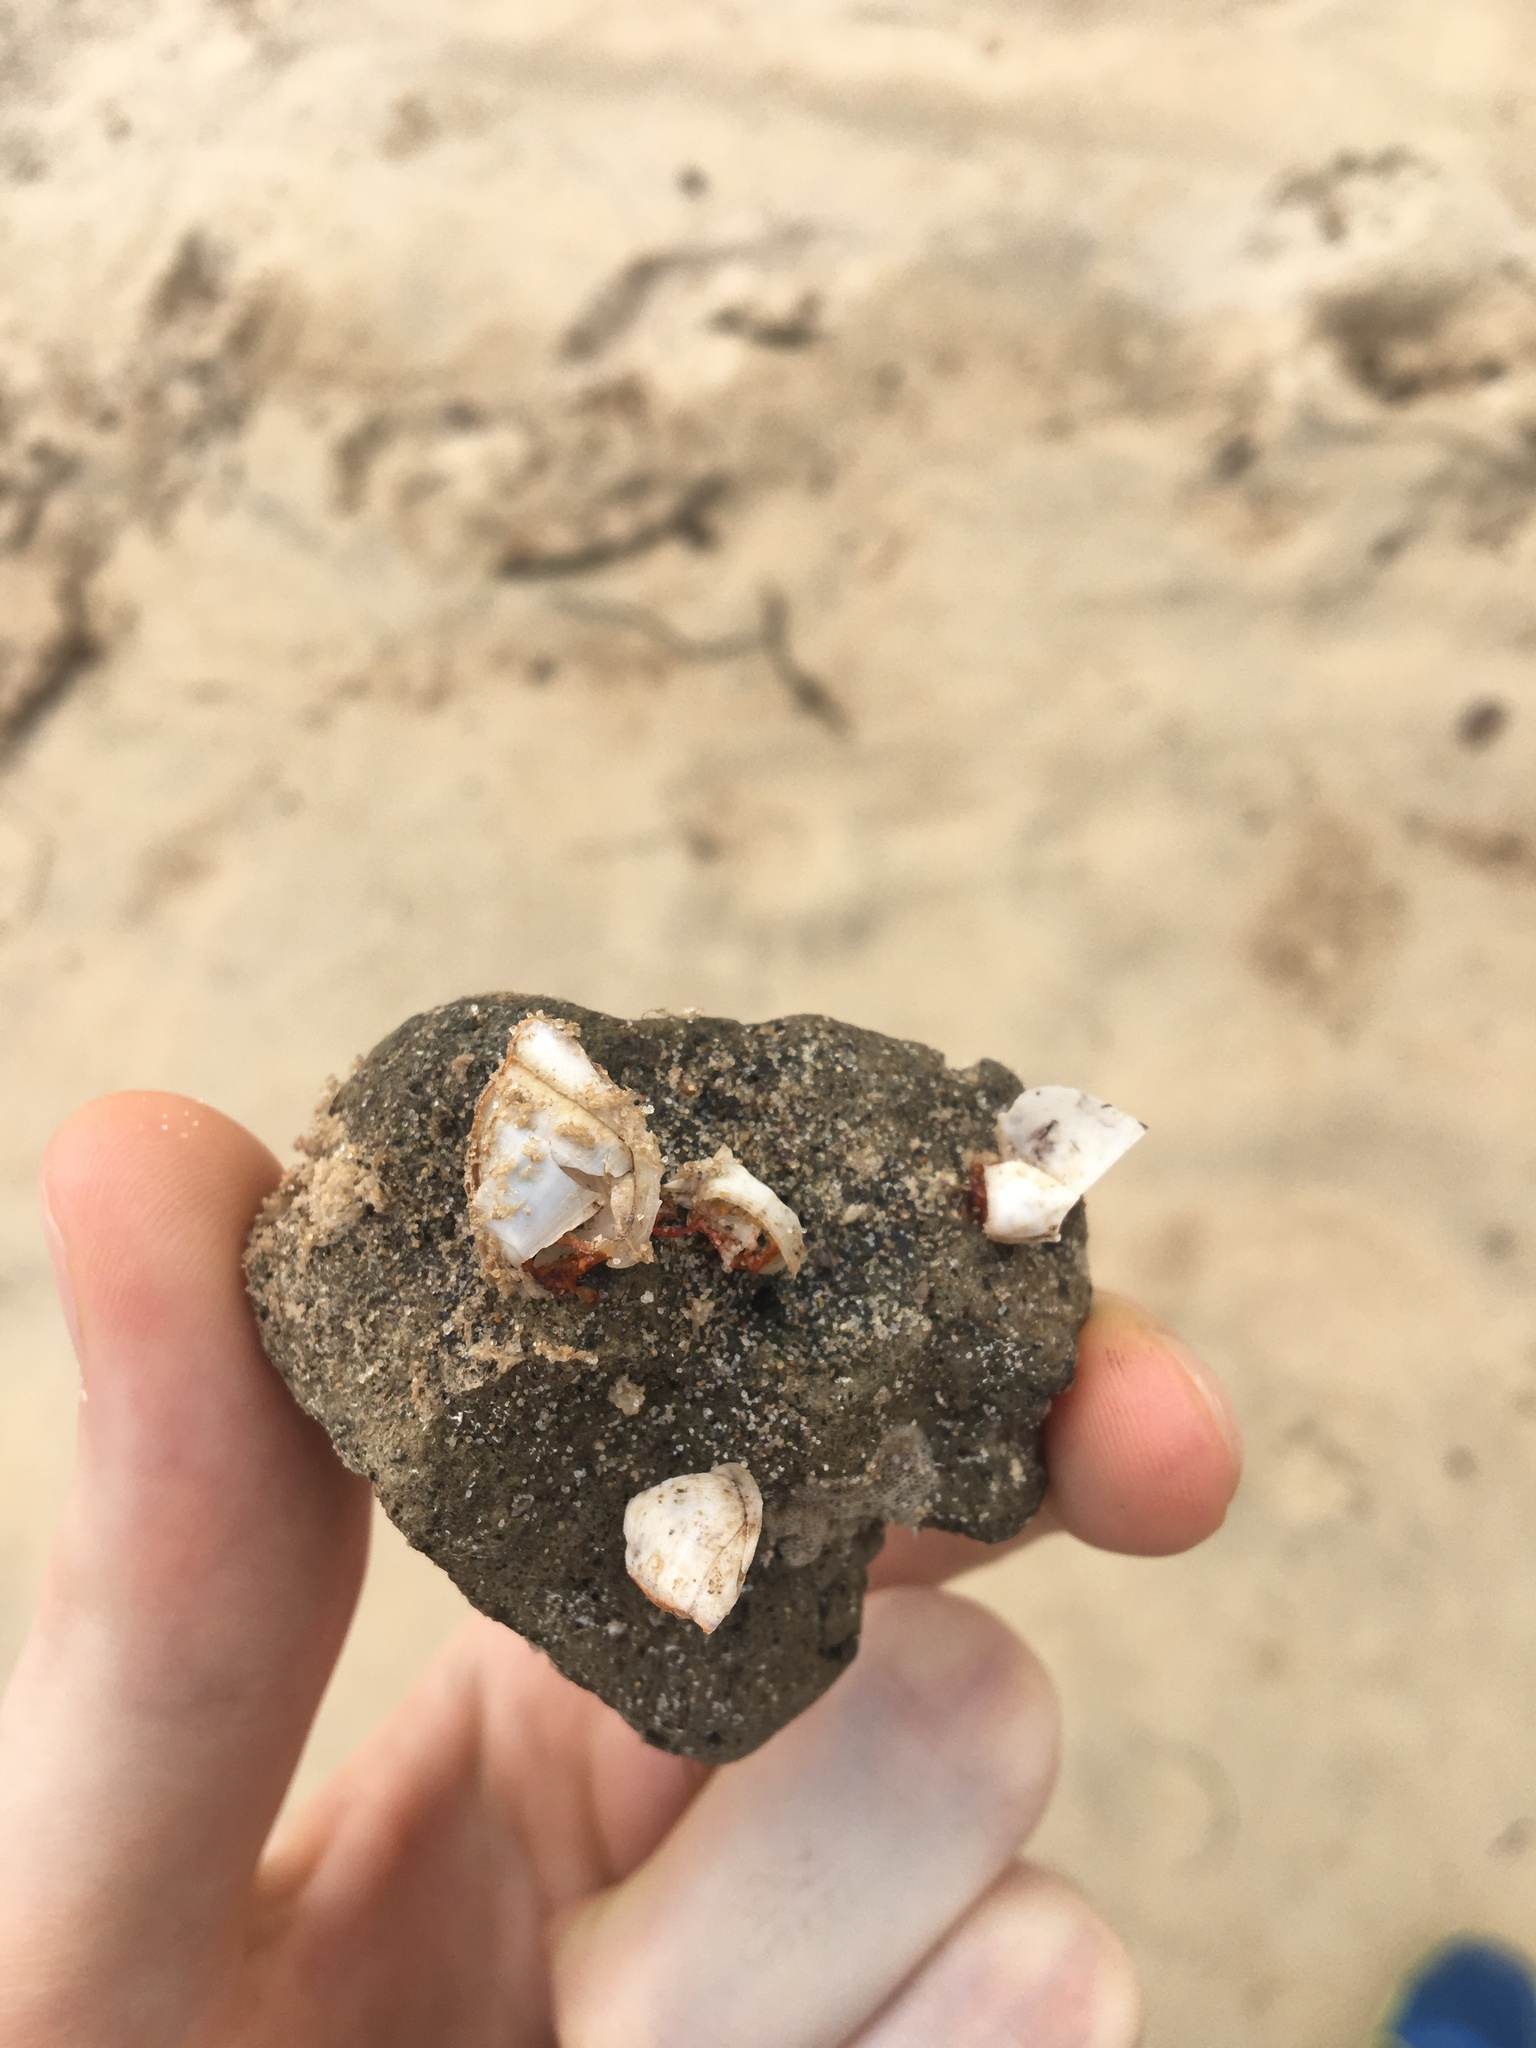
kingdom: Animalia
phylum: Arthropoda
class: Maxillopoda
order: Pedunculata
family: Lepadidae
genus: Lepas
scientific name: Lepas anserifera
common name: Goose barnacle
